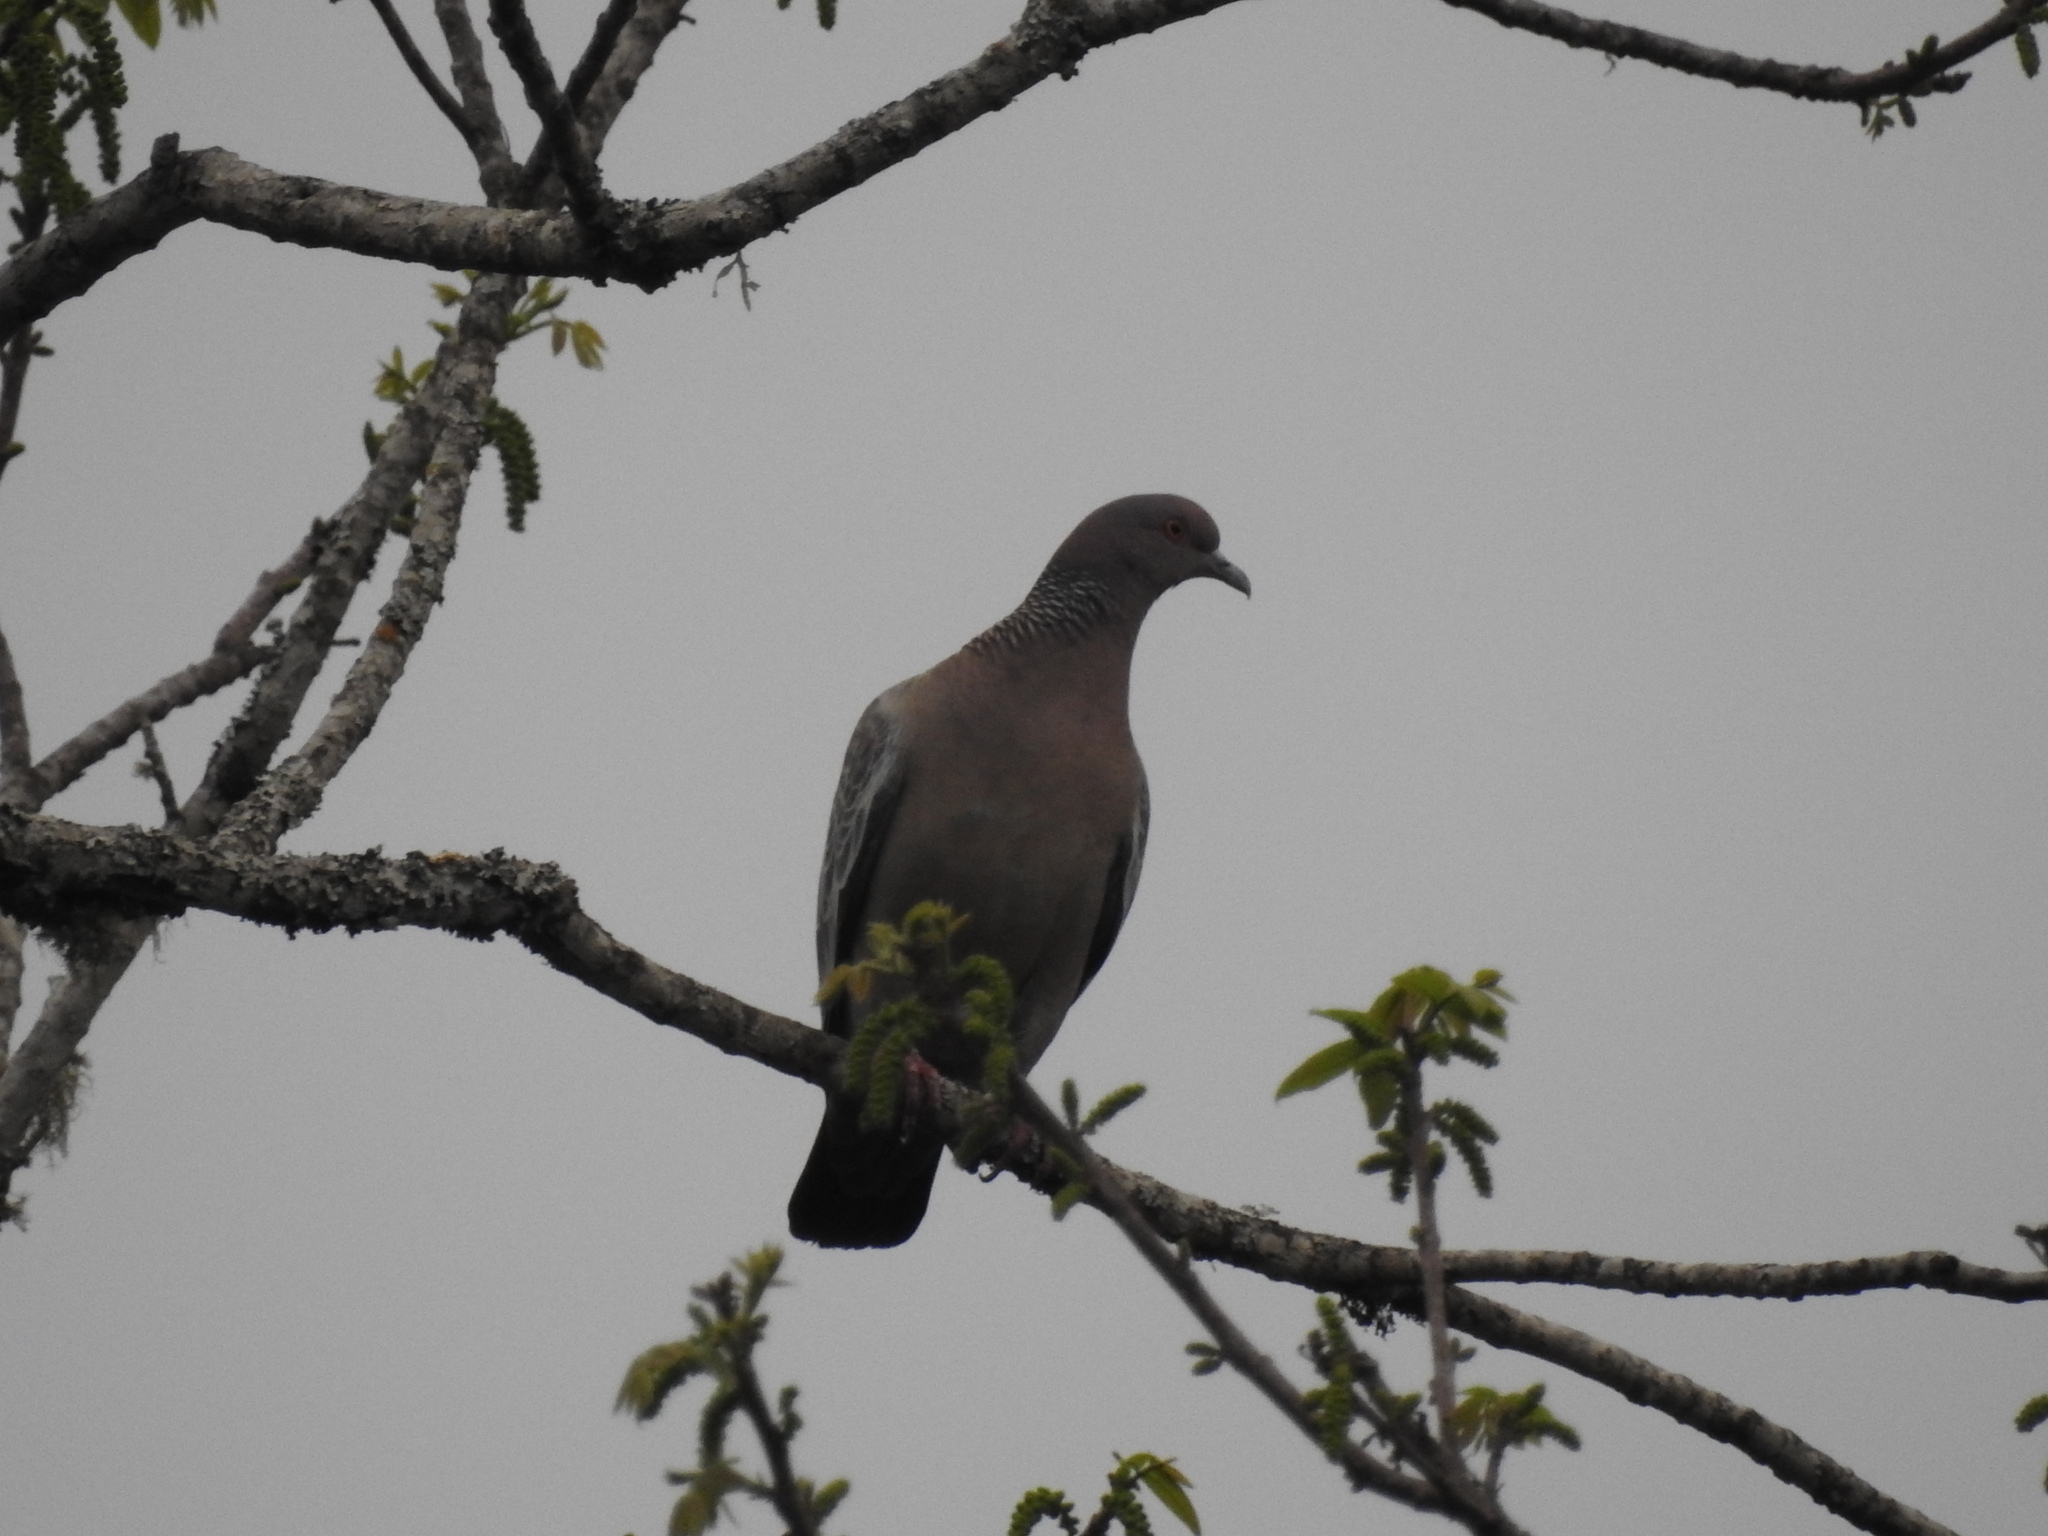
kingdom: Animalia
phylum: Chordata
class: Aves
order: Columbiformes
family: Columbidae
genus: Patagioenas
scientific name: Patagioenas picazuro
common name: Picazuro pigeon
